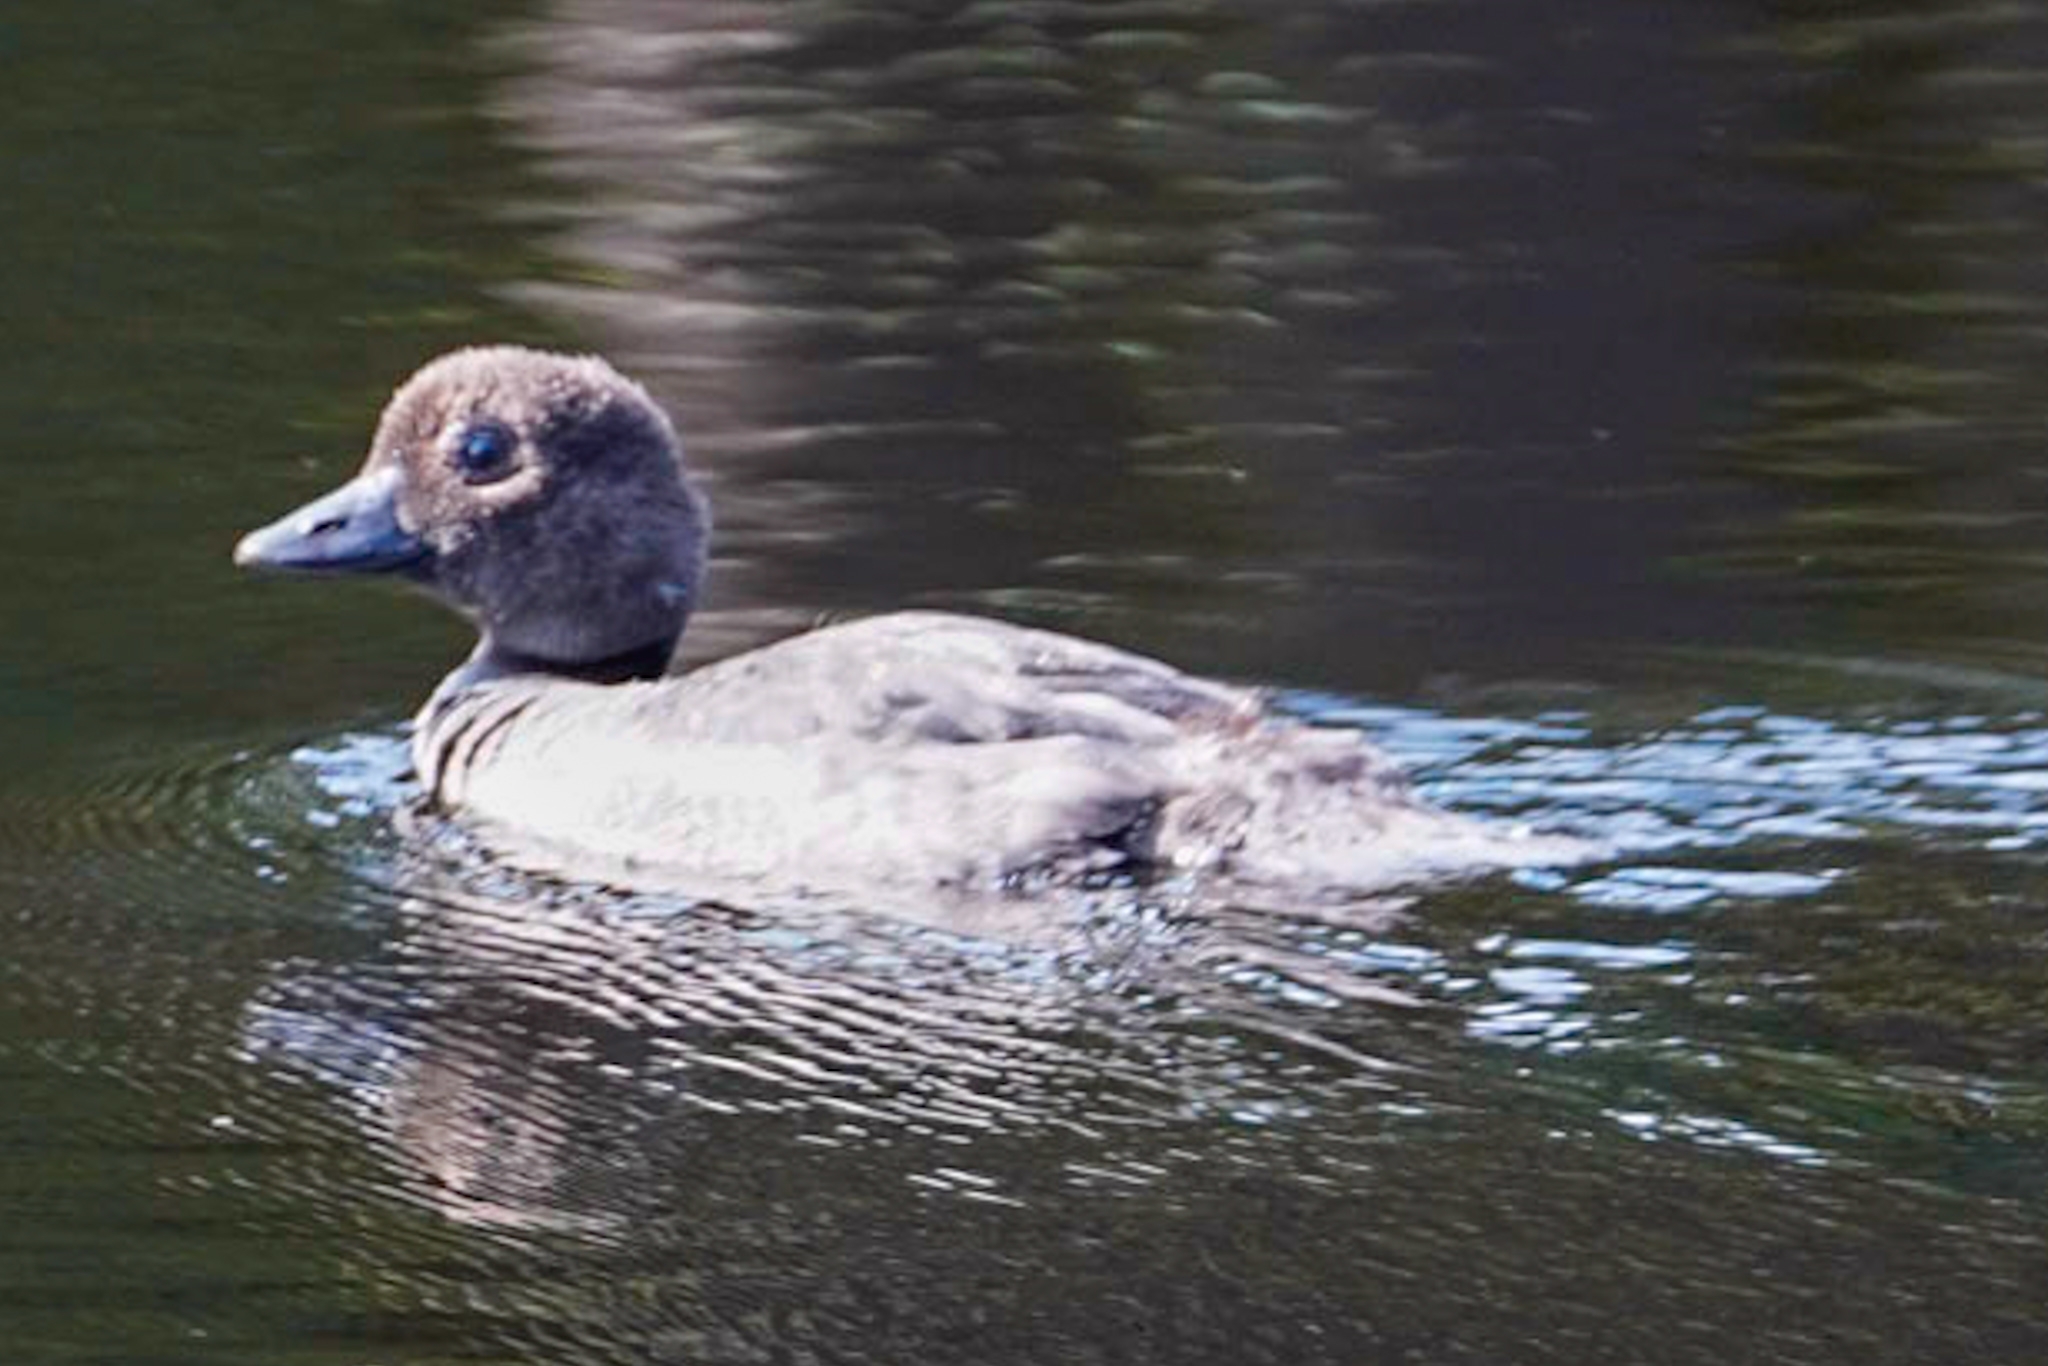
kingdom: Animalia
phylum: Chordata
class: Aves
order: Anseriformes
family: Anatidae
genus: Bucephala
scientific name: Bucephala clangula
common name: Common goldeneye
